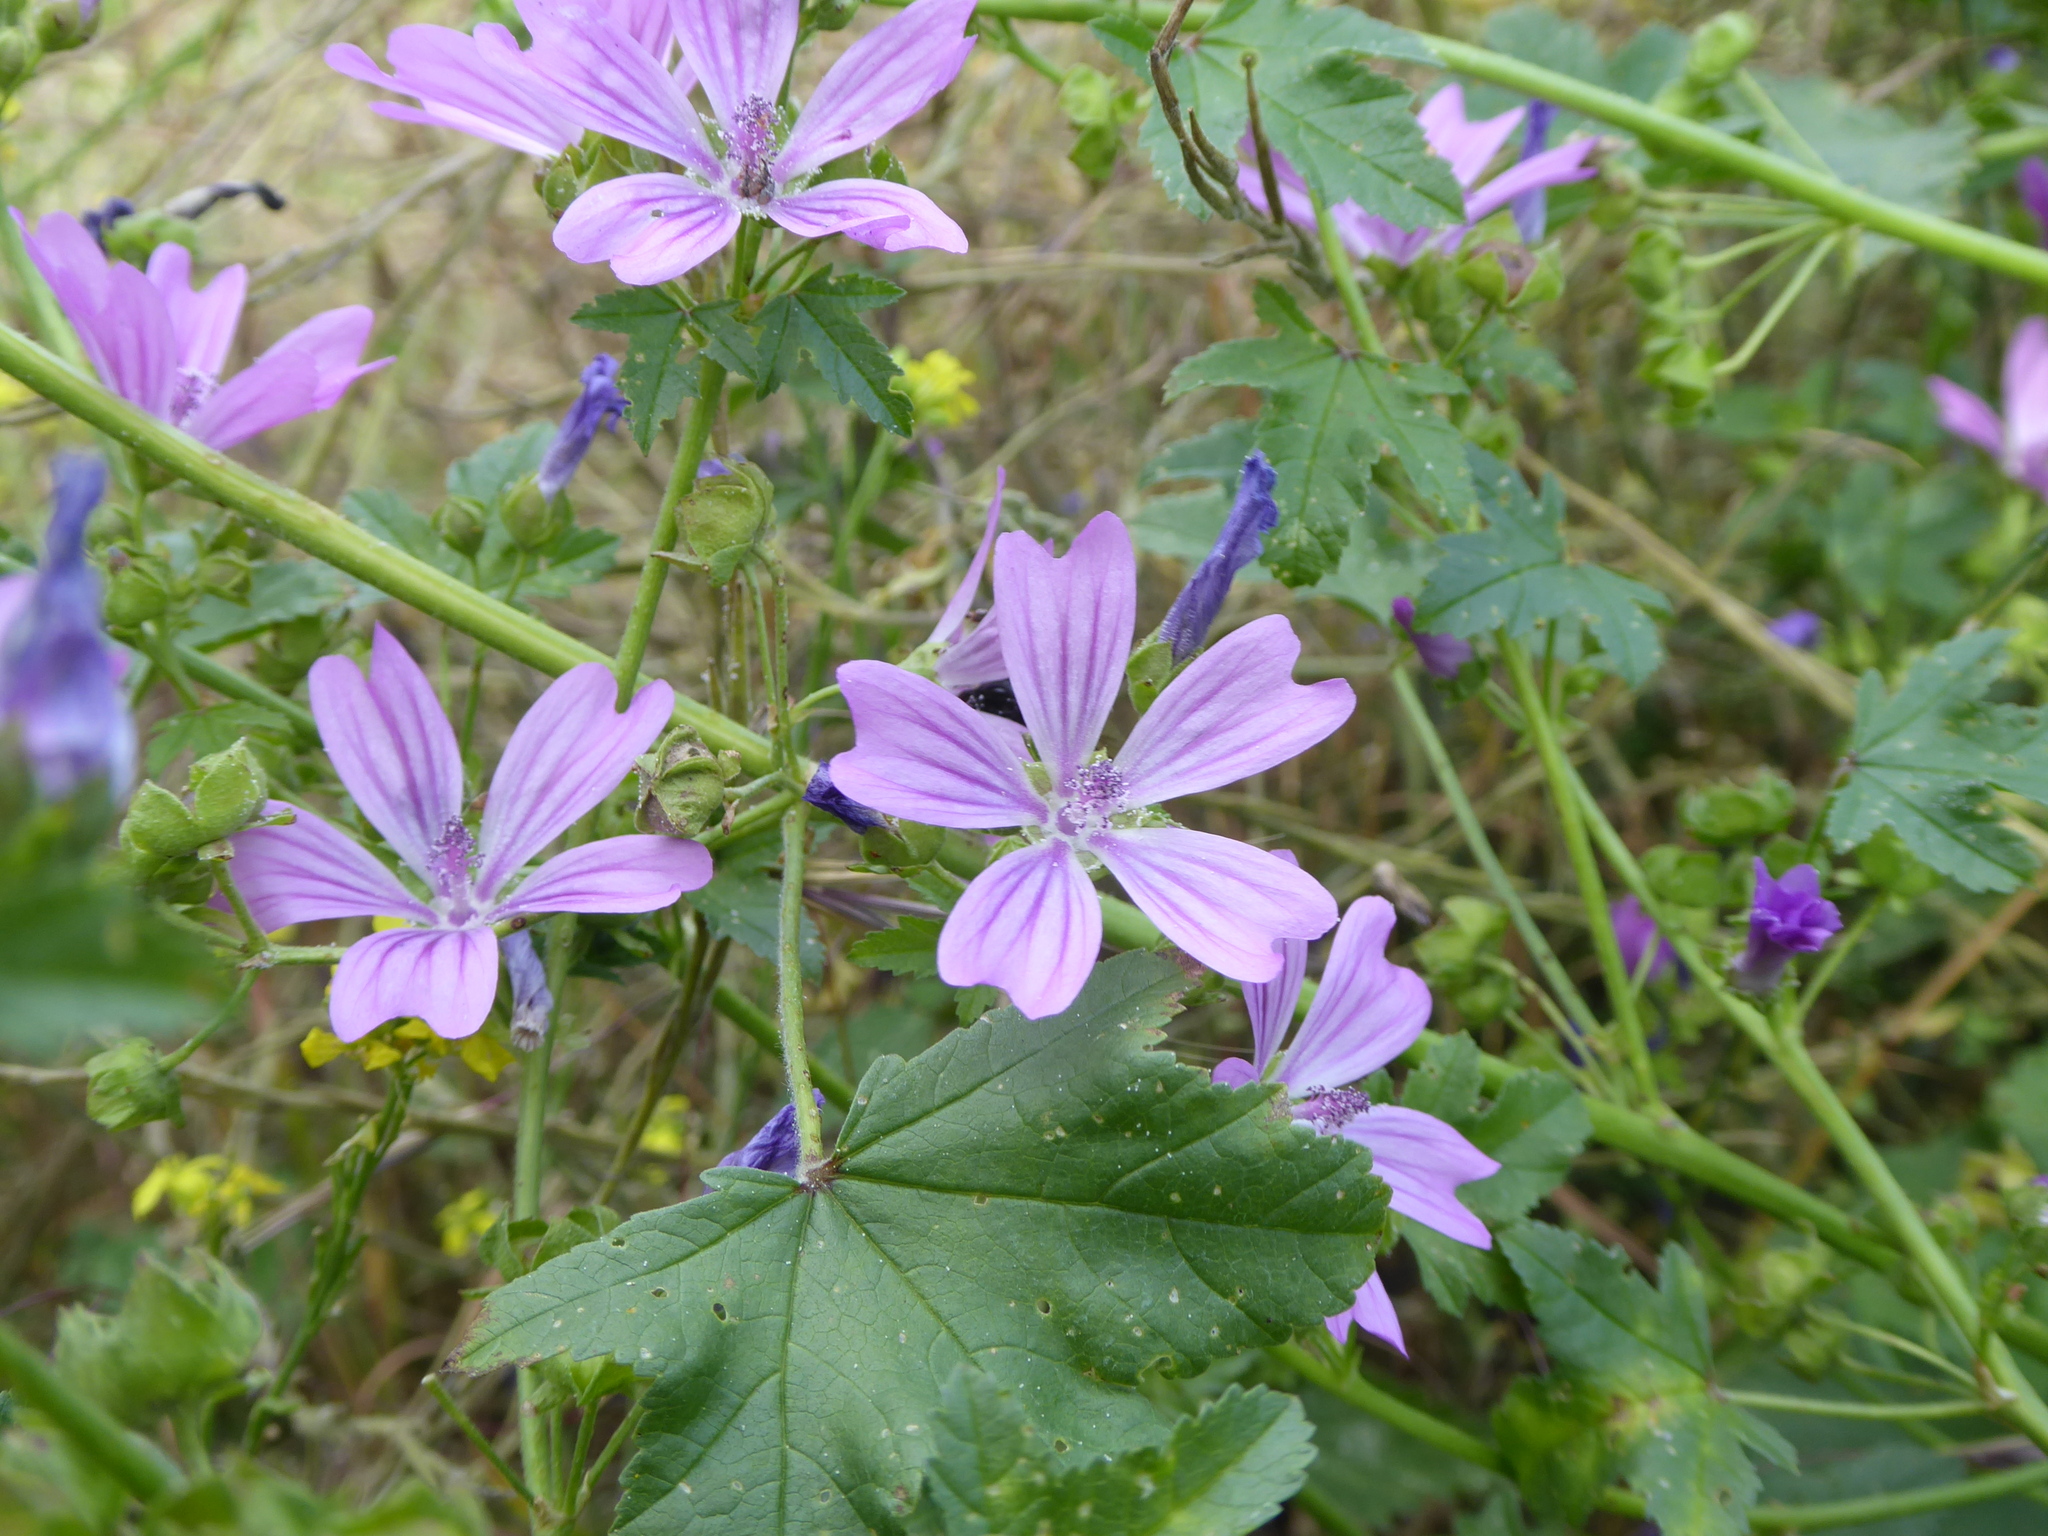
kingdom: Plantae
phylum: Tracheophyta
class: Magnoliopsida
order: Malvales
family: Malvaceae
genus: Malva
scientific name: Malva sylvestris
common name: Common mallow
